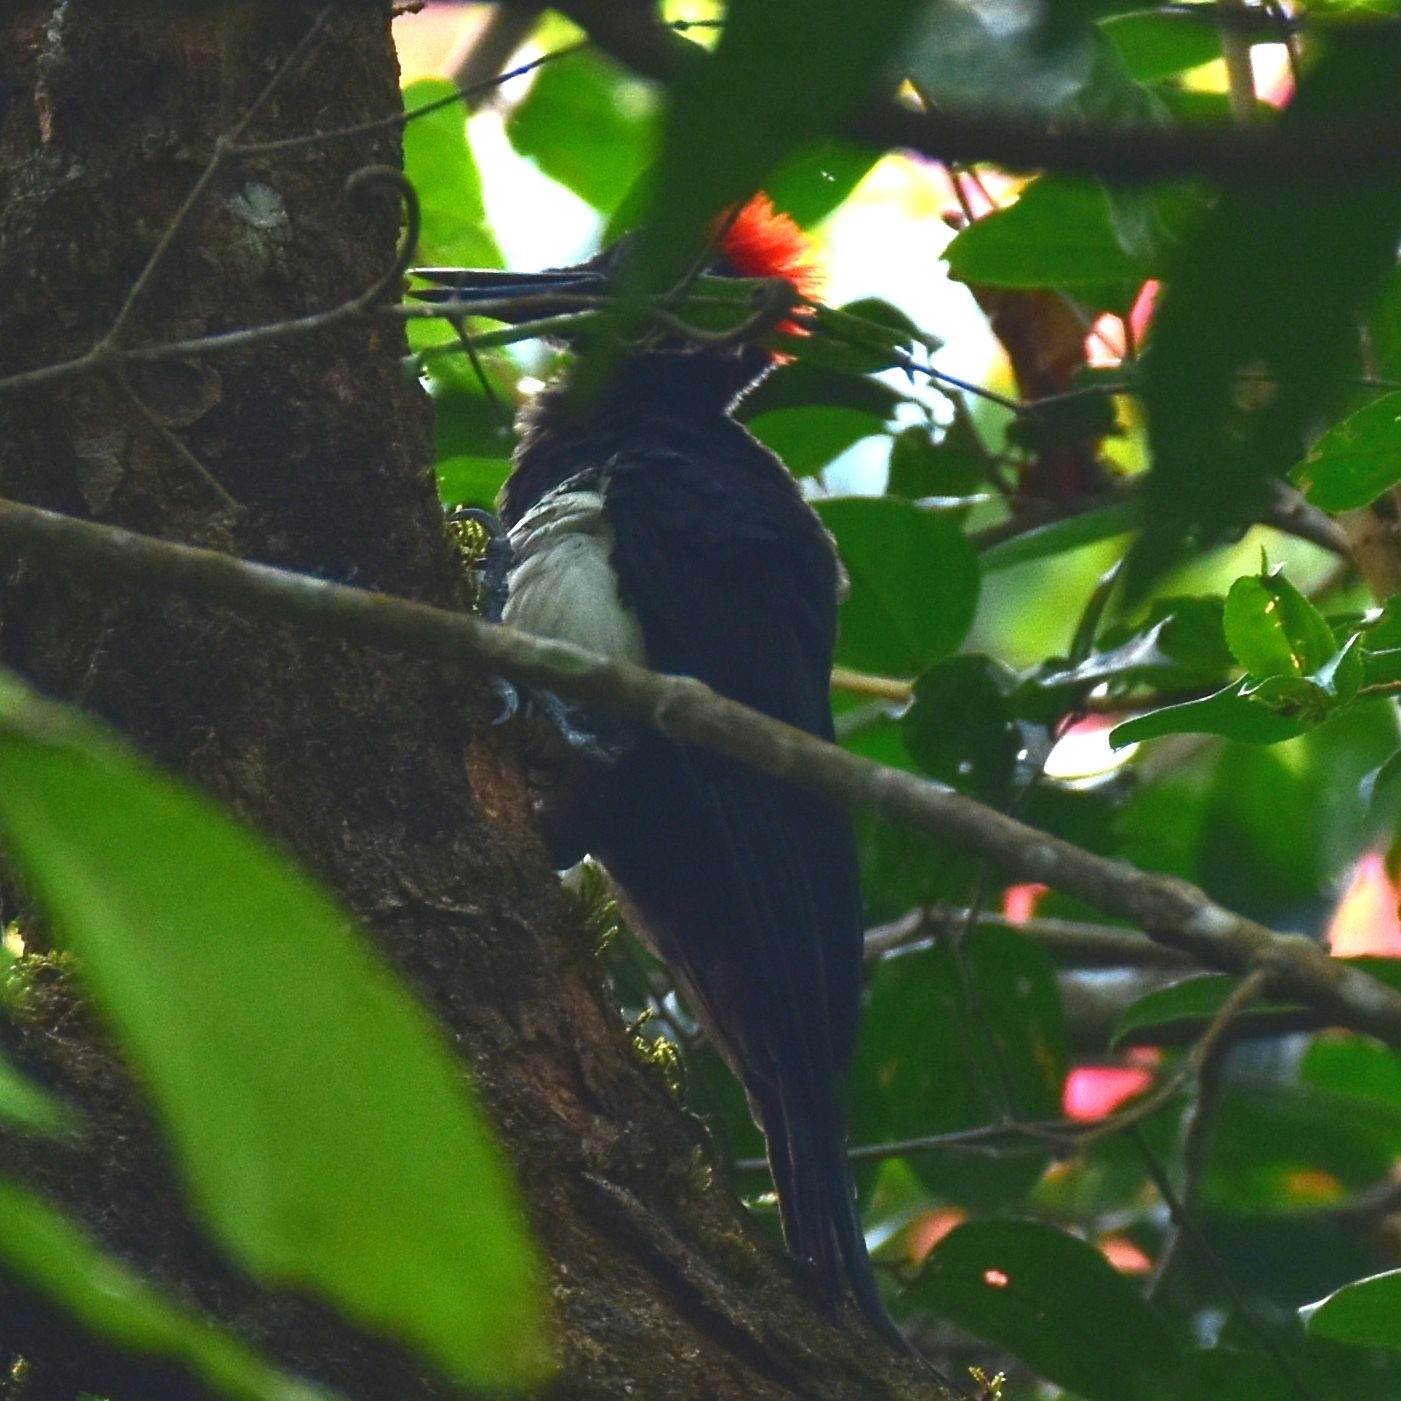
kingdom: Animalia
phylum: Chordata
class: Aves
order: Piciformes
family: Picidae
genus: Dryocopus
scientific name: Dryocopus javensis
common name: White-bellied woodpecker
